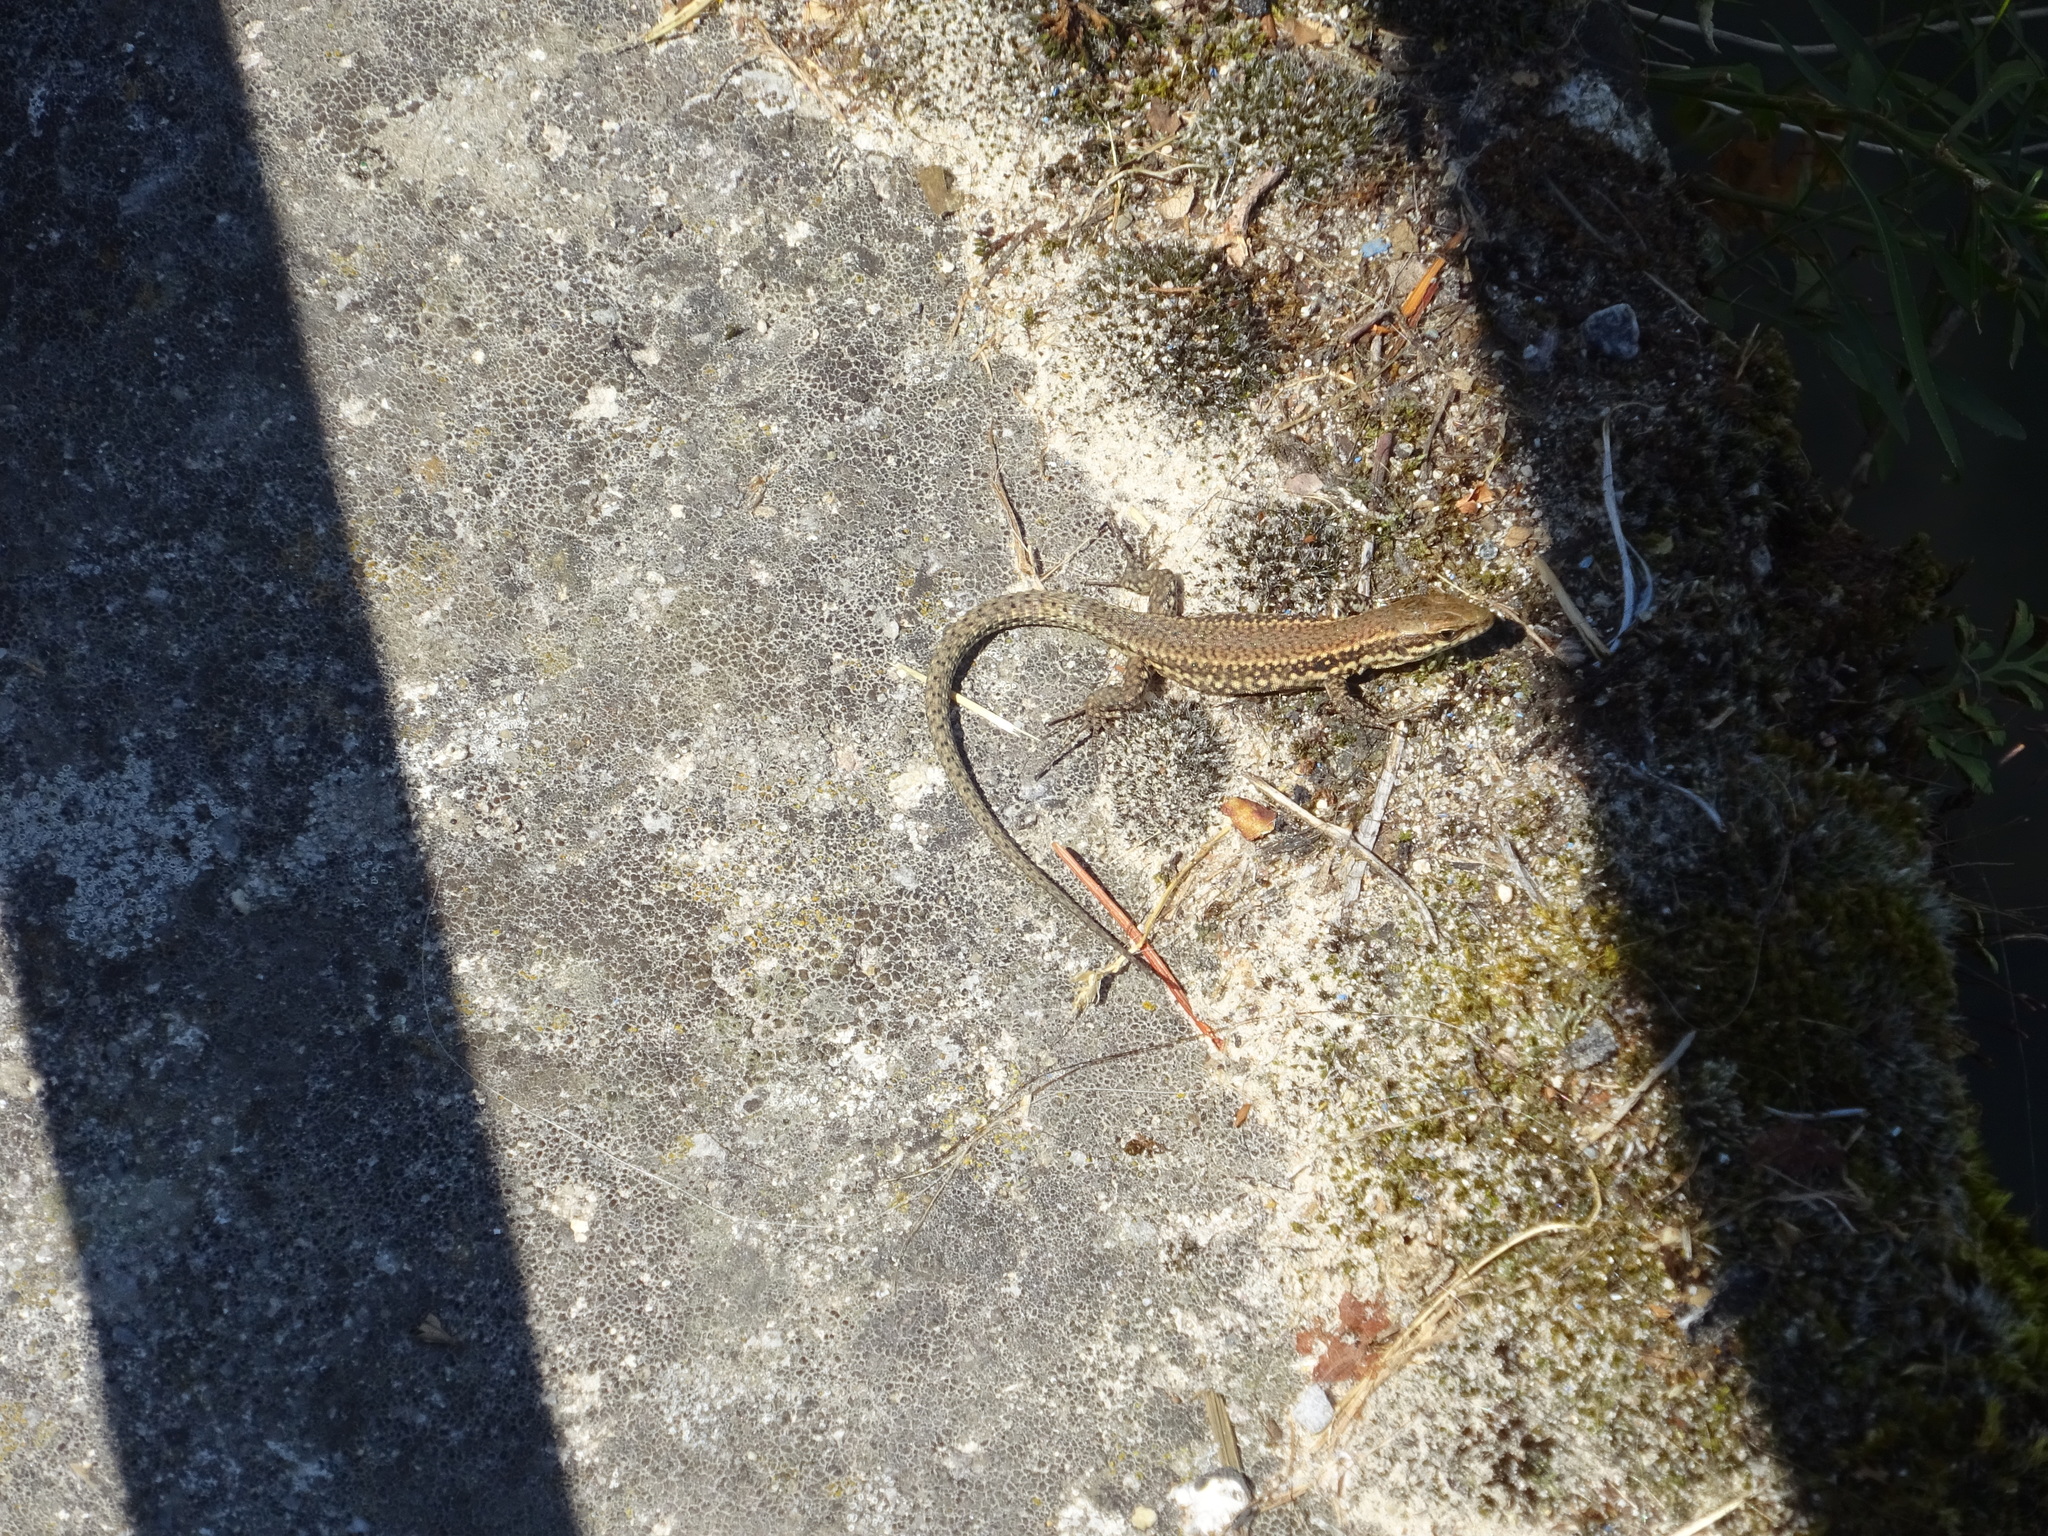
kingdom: Animalia
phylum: Chordata
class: Squamata
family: Lacertidae
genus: Podarcis
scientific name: Podarcis muralis
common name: Common wall lizard
